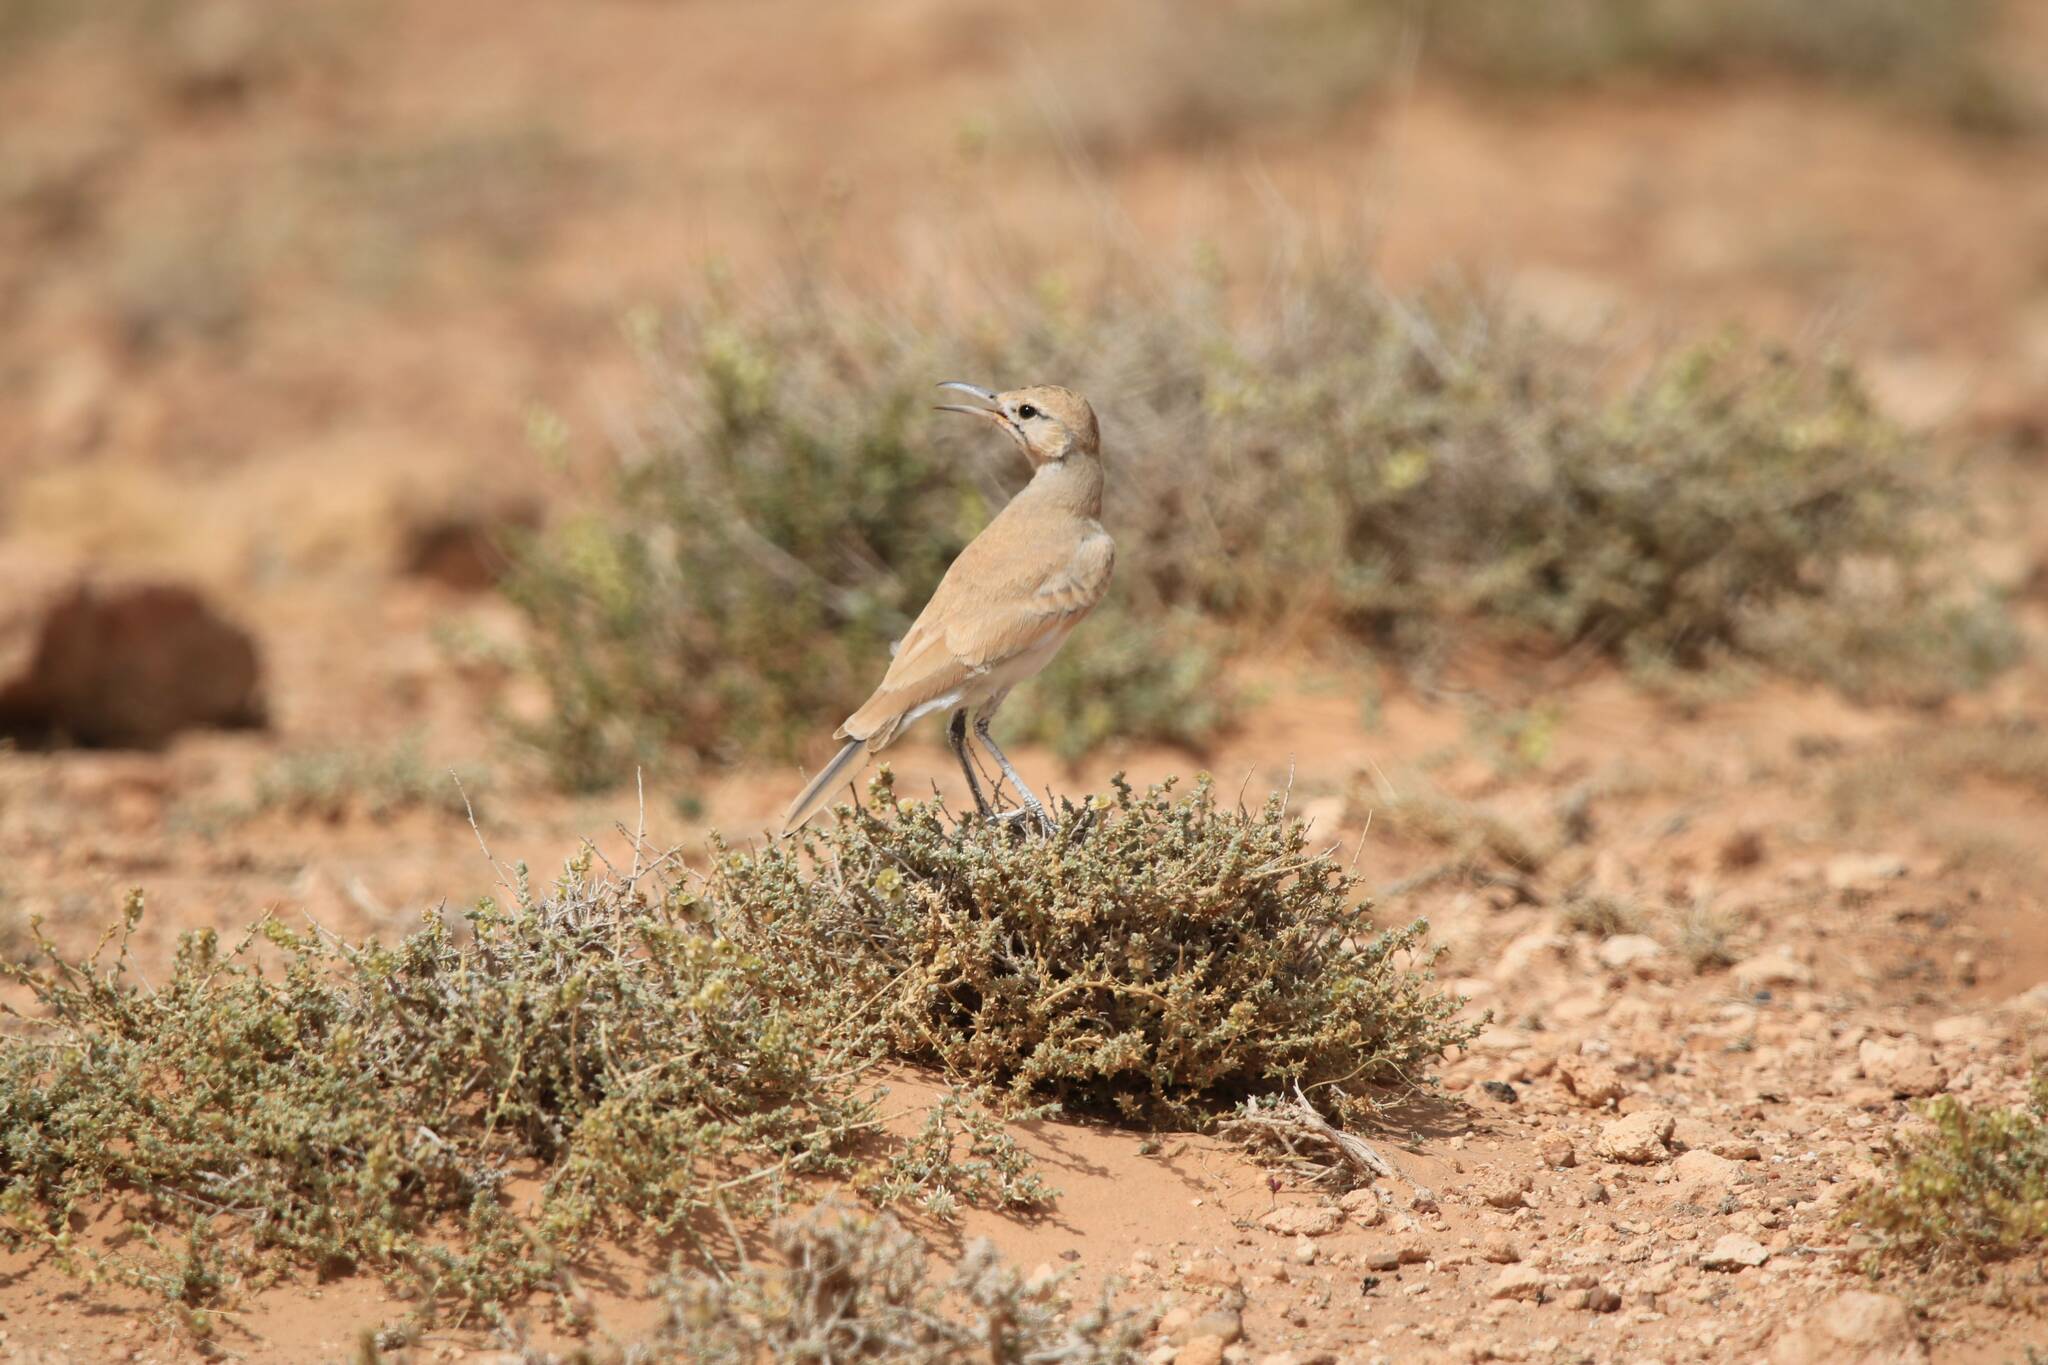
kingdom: Animalia
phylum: Chordata
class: Aves
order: Passeriformes
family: Alaudidae
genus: Alaemon
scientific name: Alaemon alaudipes
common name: Greater hoopoe-lark
